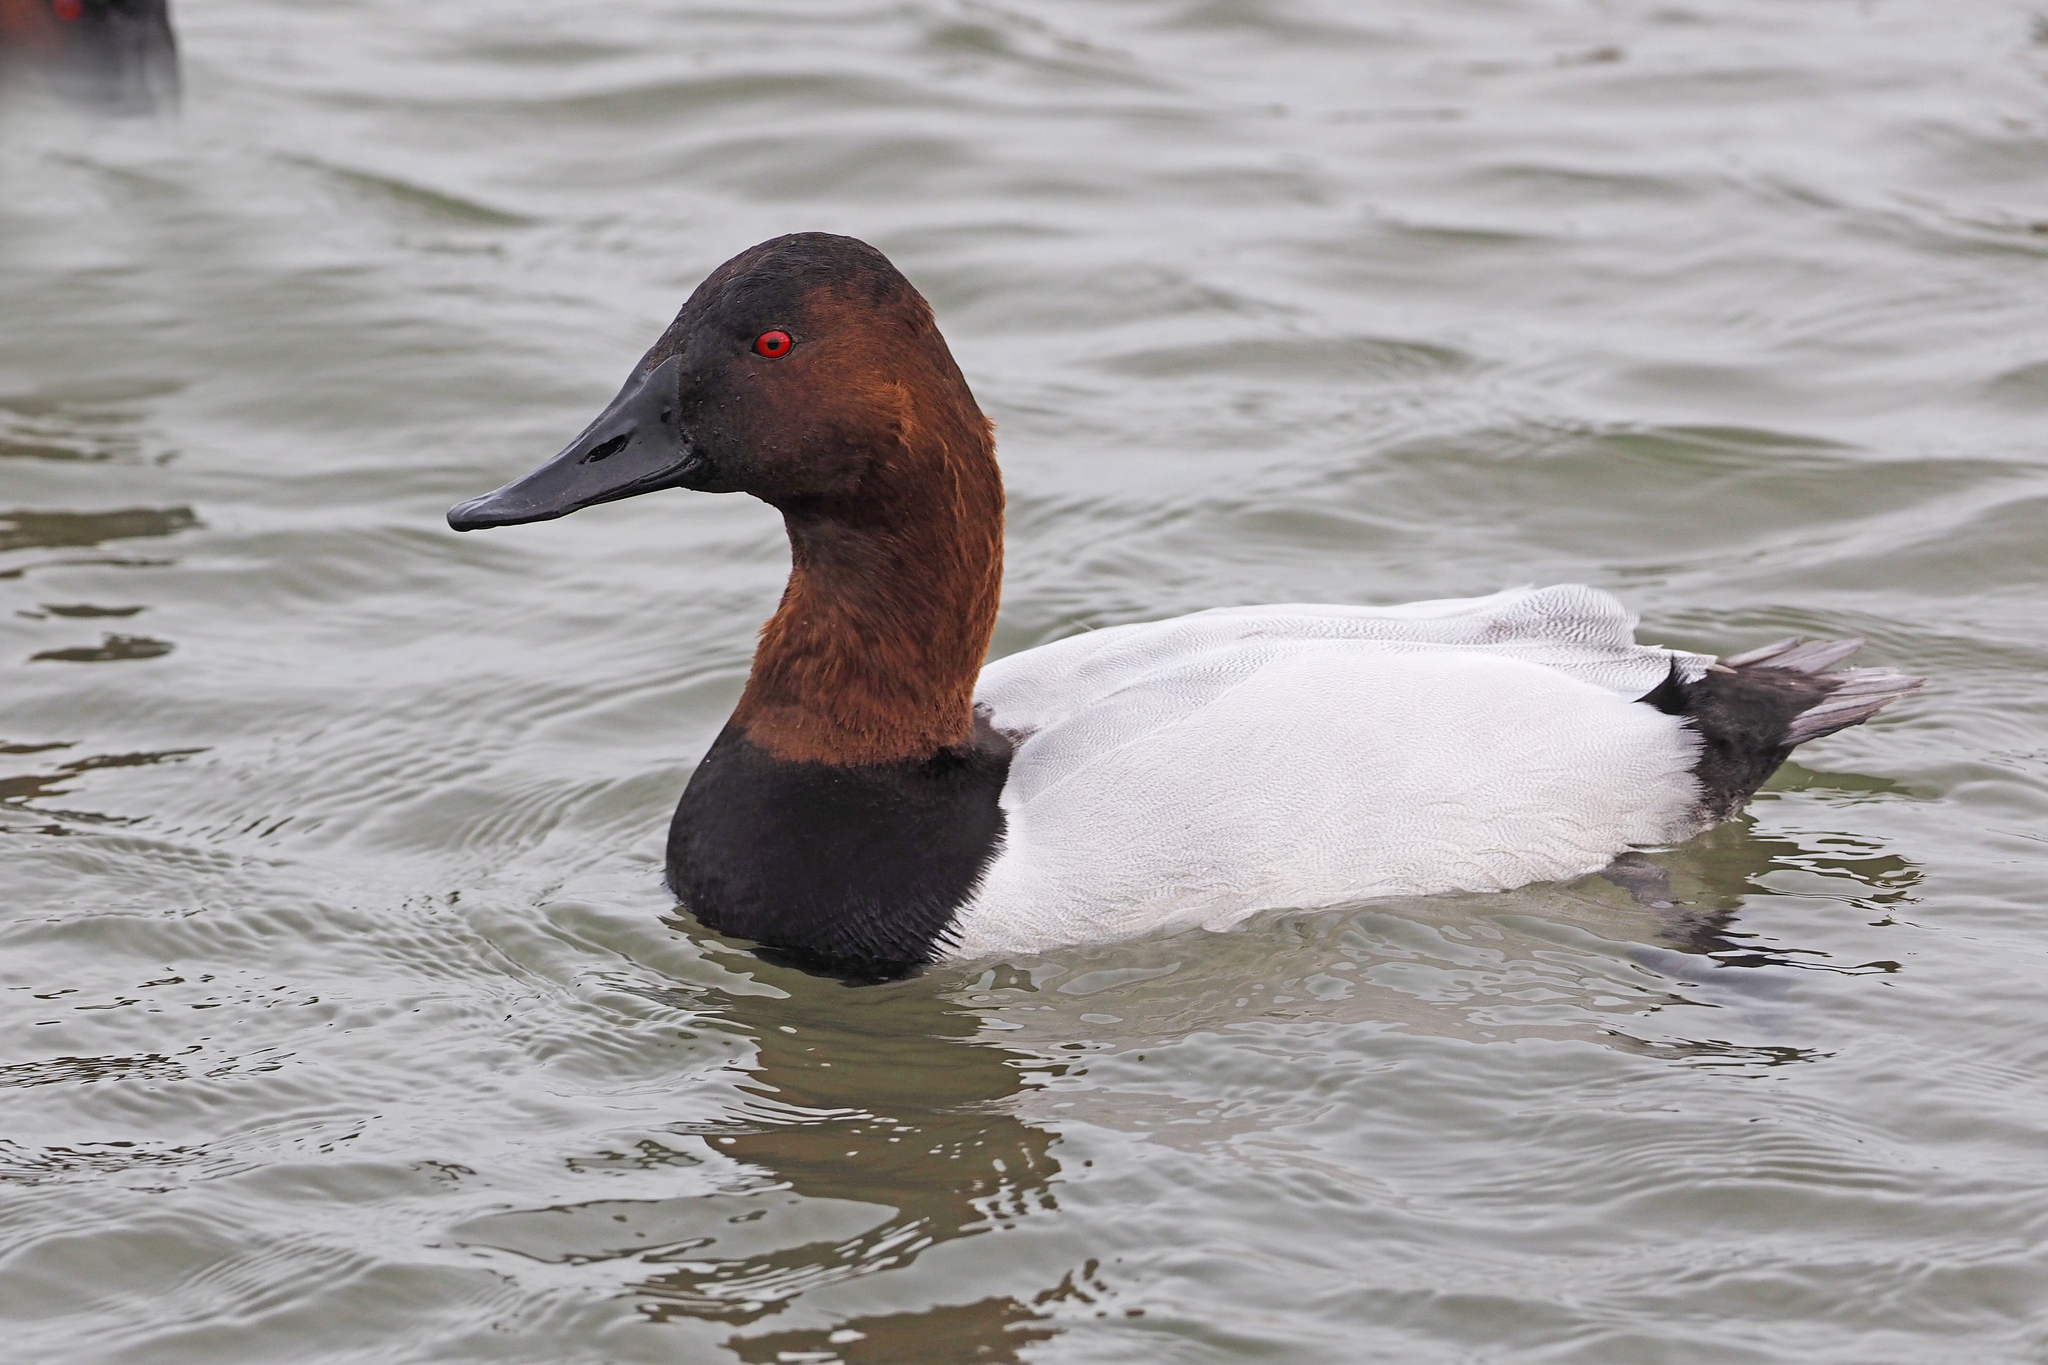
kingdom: Animalia
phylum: Chordata
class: Aves
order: Anseriformes
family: Anatidae
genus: Aythya
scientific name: Aythya valisineria
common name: Canvasback
